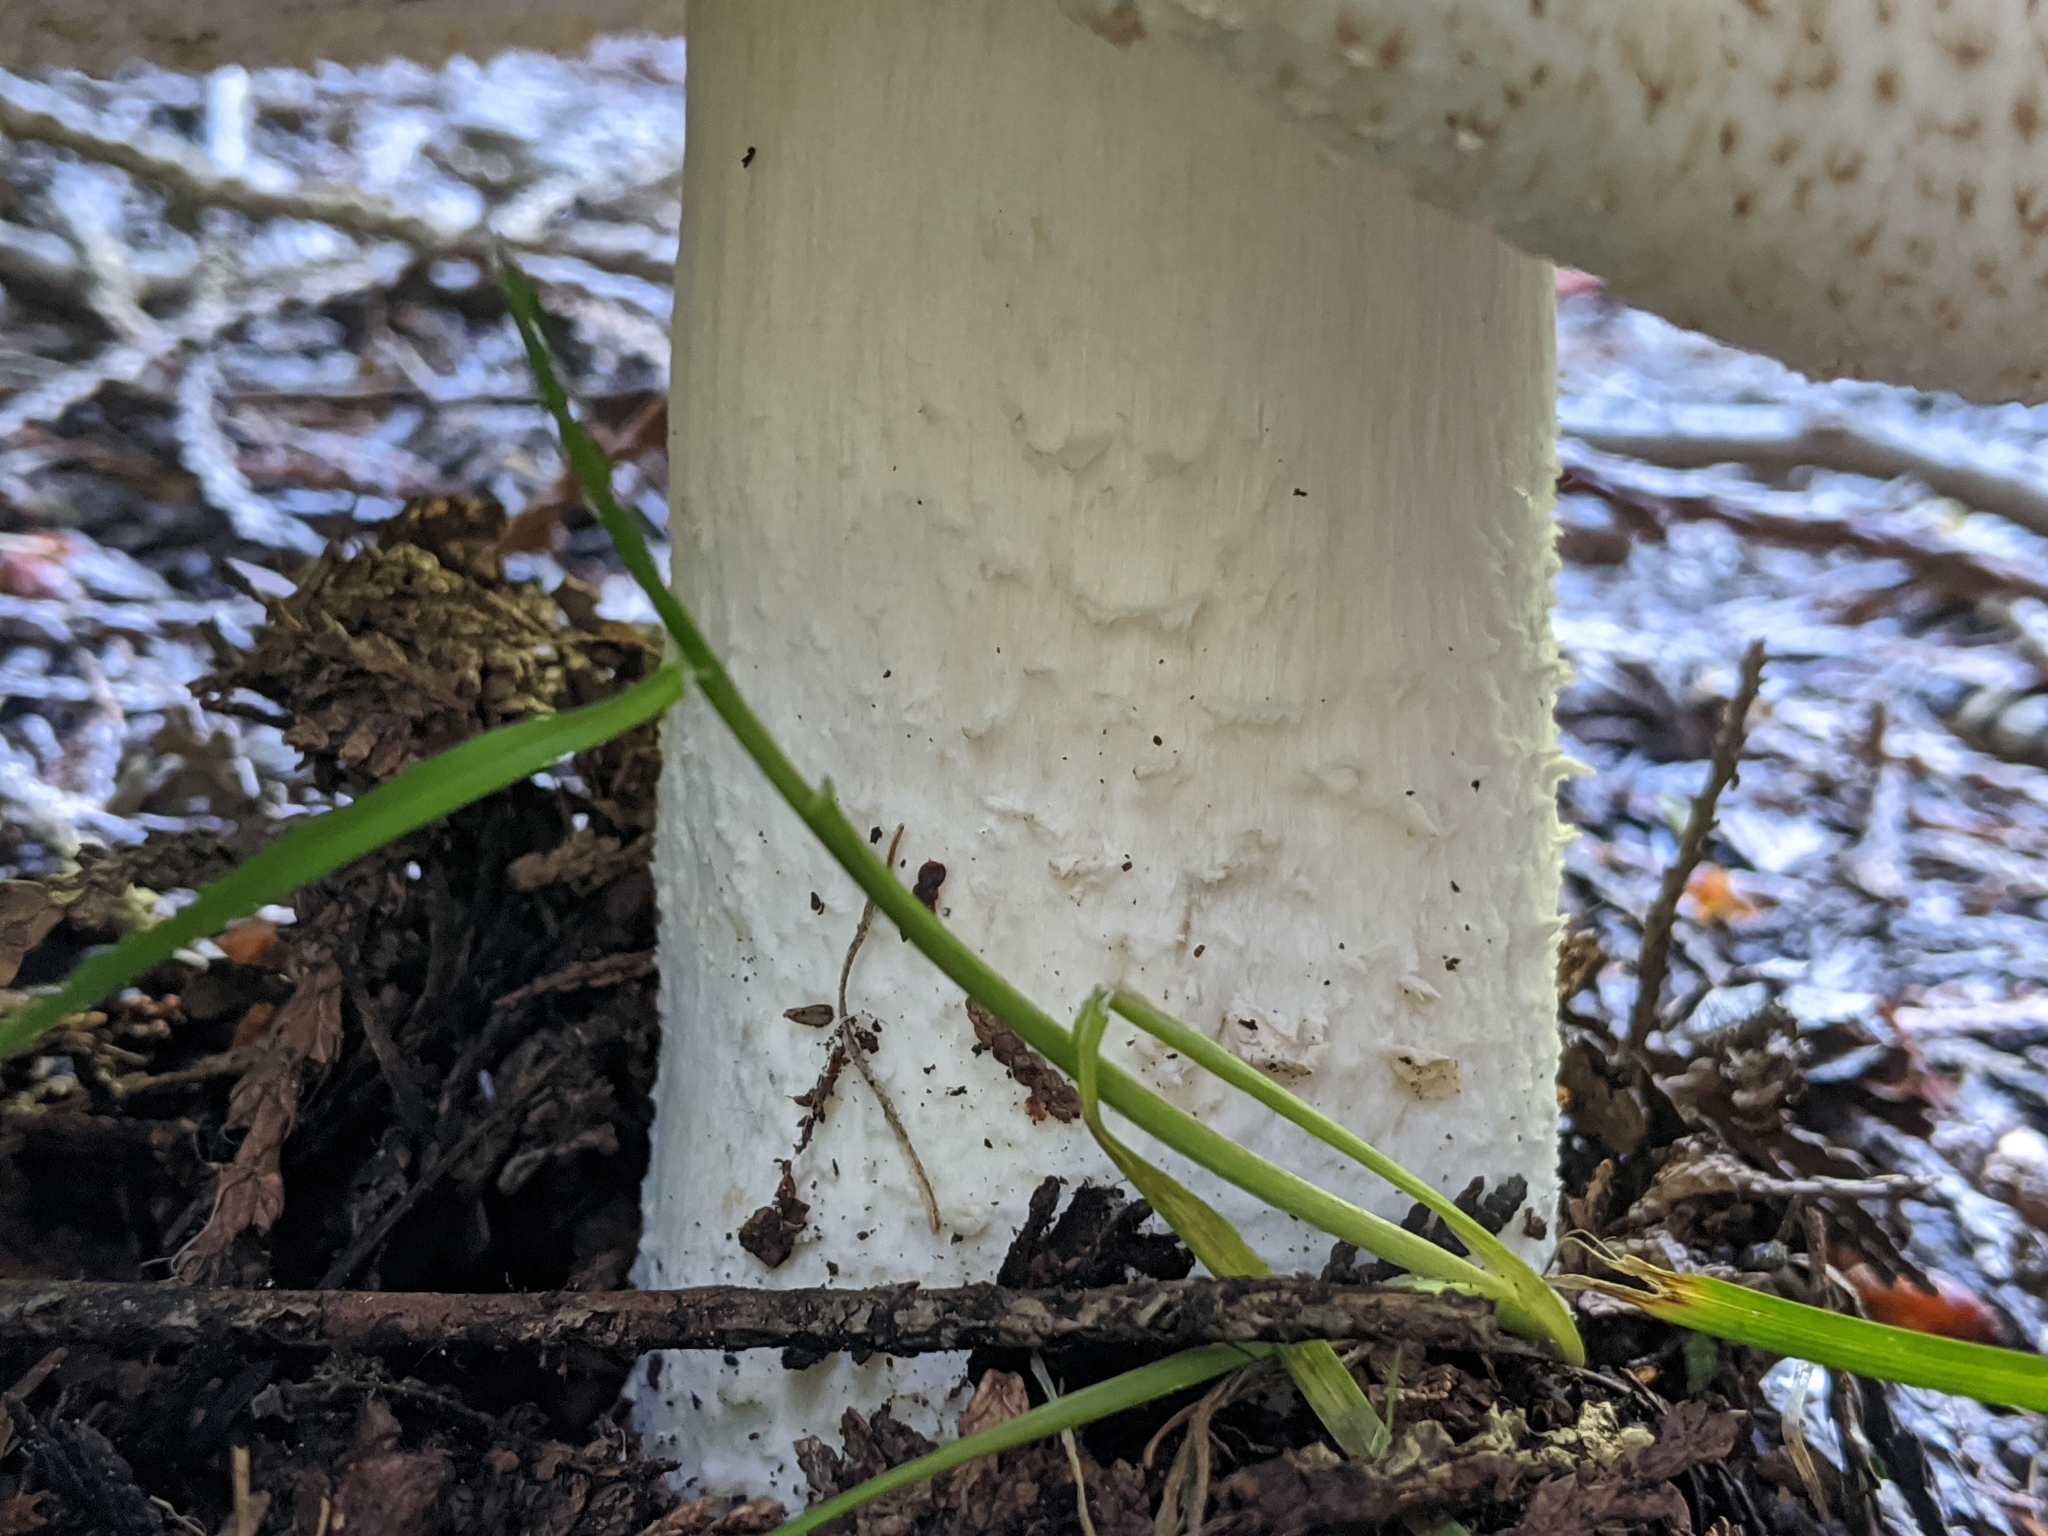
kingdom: Fungi
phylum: Basidiomycota
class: Agaricomycetes
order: Agaricales
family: Agaricaceae
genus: Agaricus
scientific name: Agaricus augustus
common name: Prince
